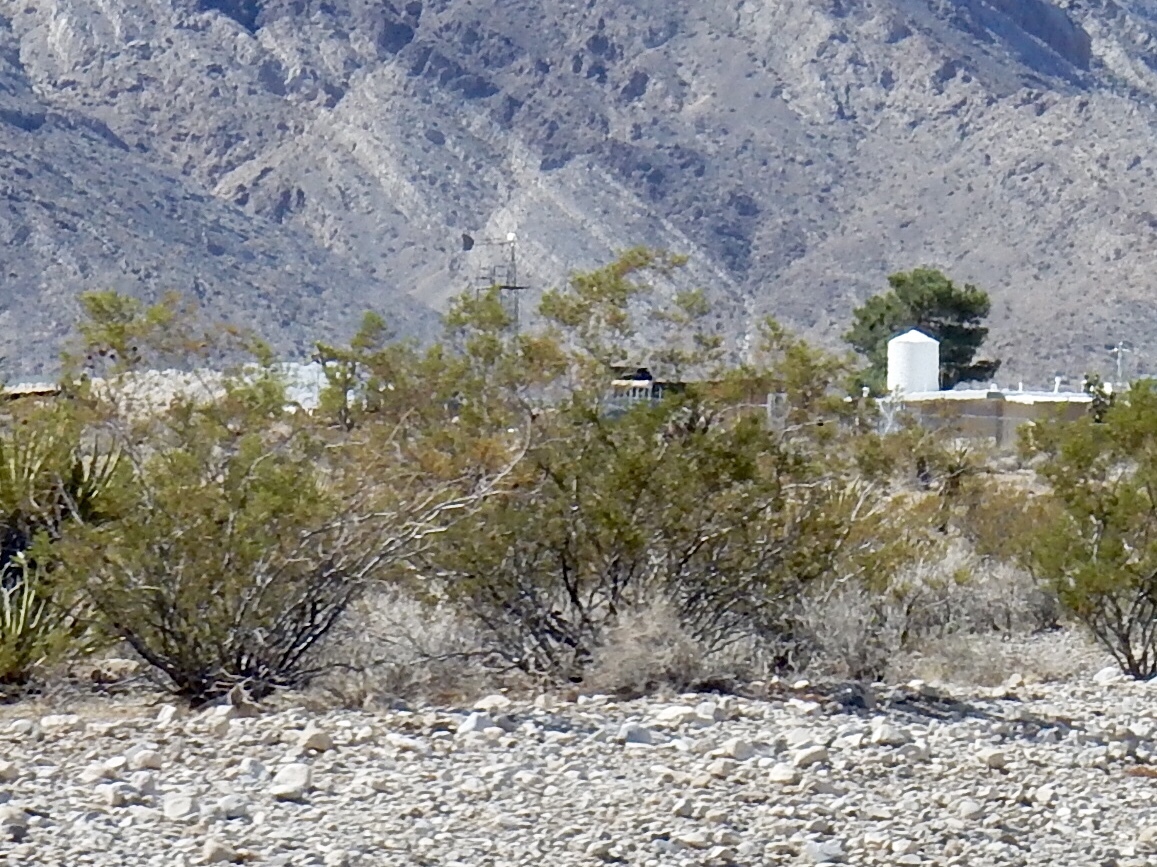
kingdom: Plantae
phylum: Tracheophyta
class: Magnoliopsida
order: Zygophyllales
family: Zygophyllaceae
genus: Larrea
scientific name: Larrea tridentata
